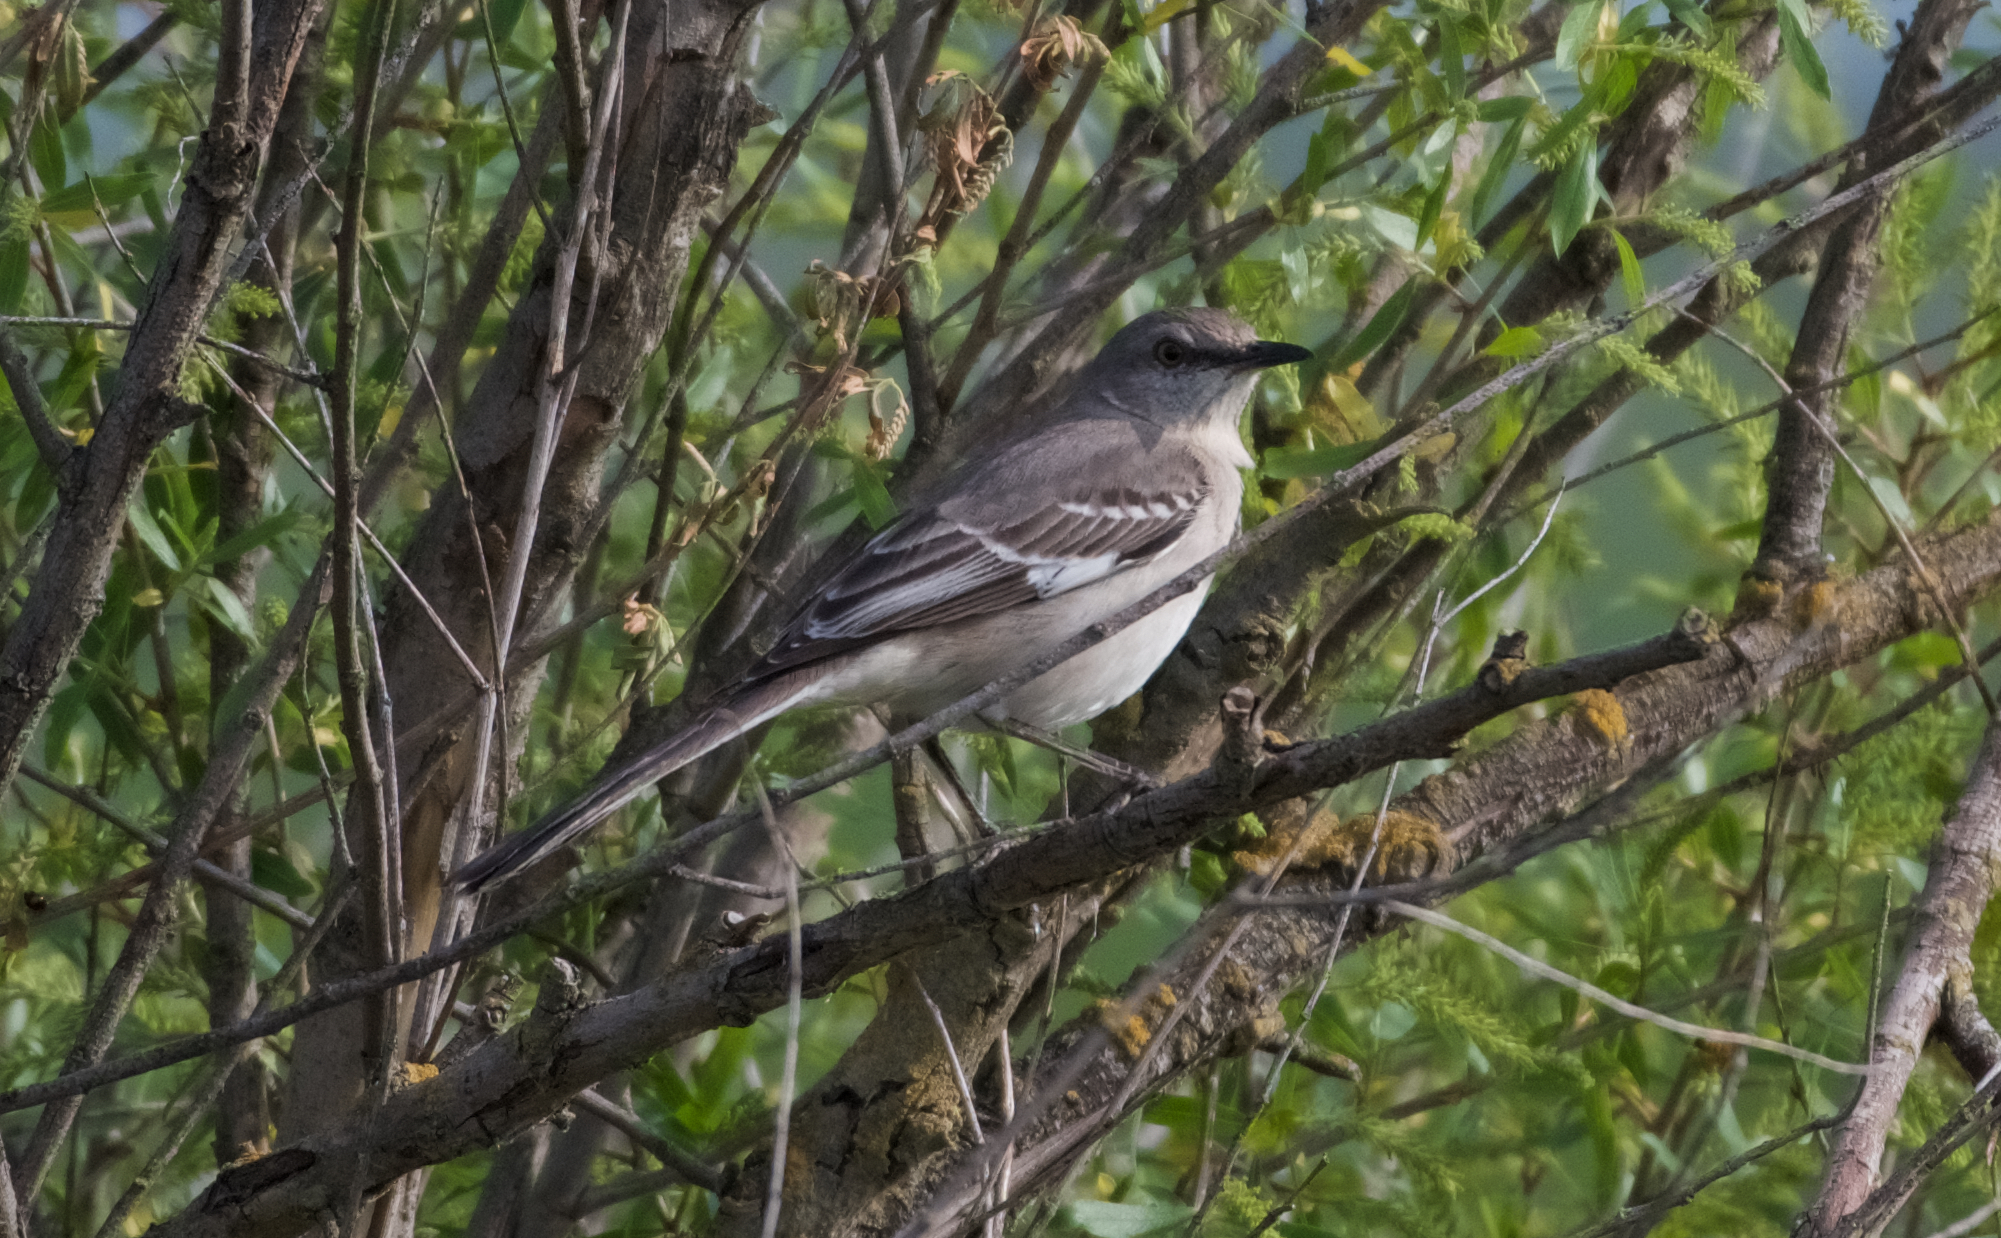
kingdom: Animalia
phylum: Chordata
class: Aves
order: Passeriformes
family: Mimidae
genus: Mimus
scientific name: Mimus polyglottos
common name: Northern mockingbird
